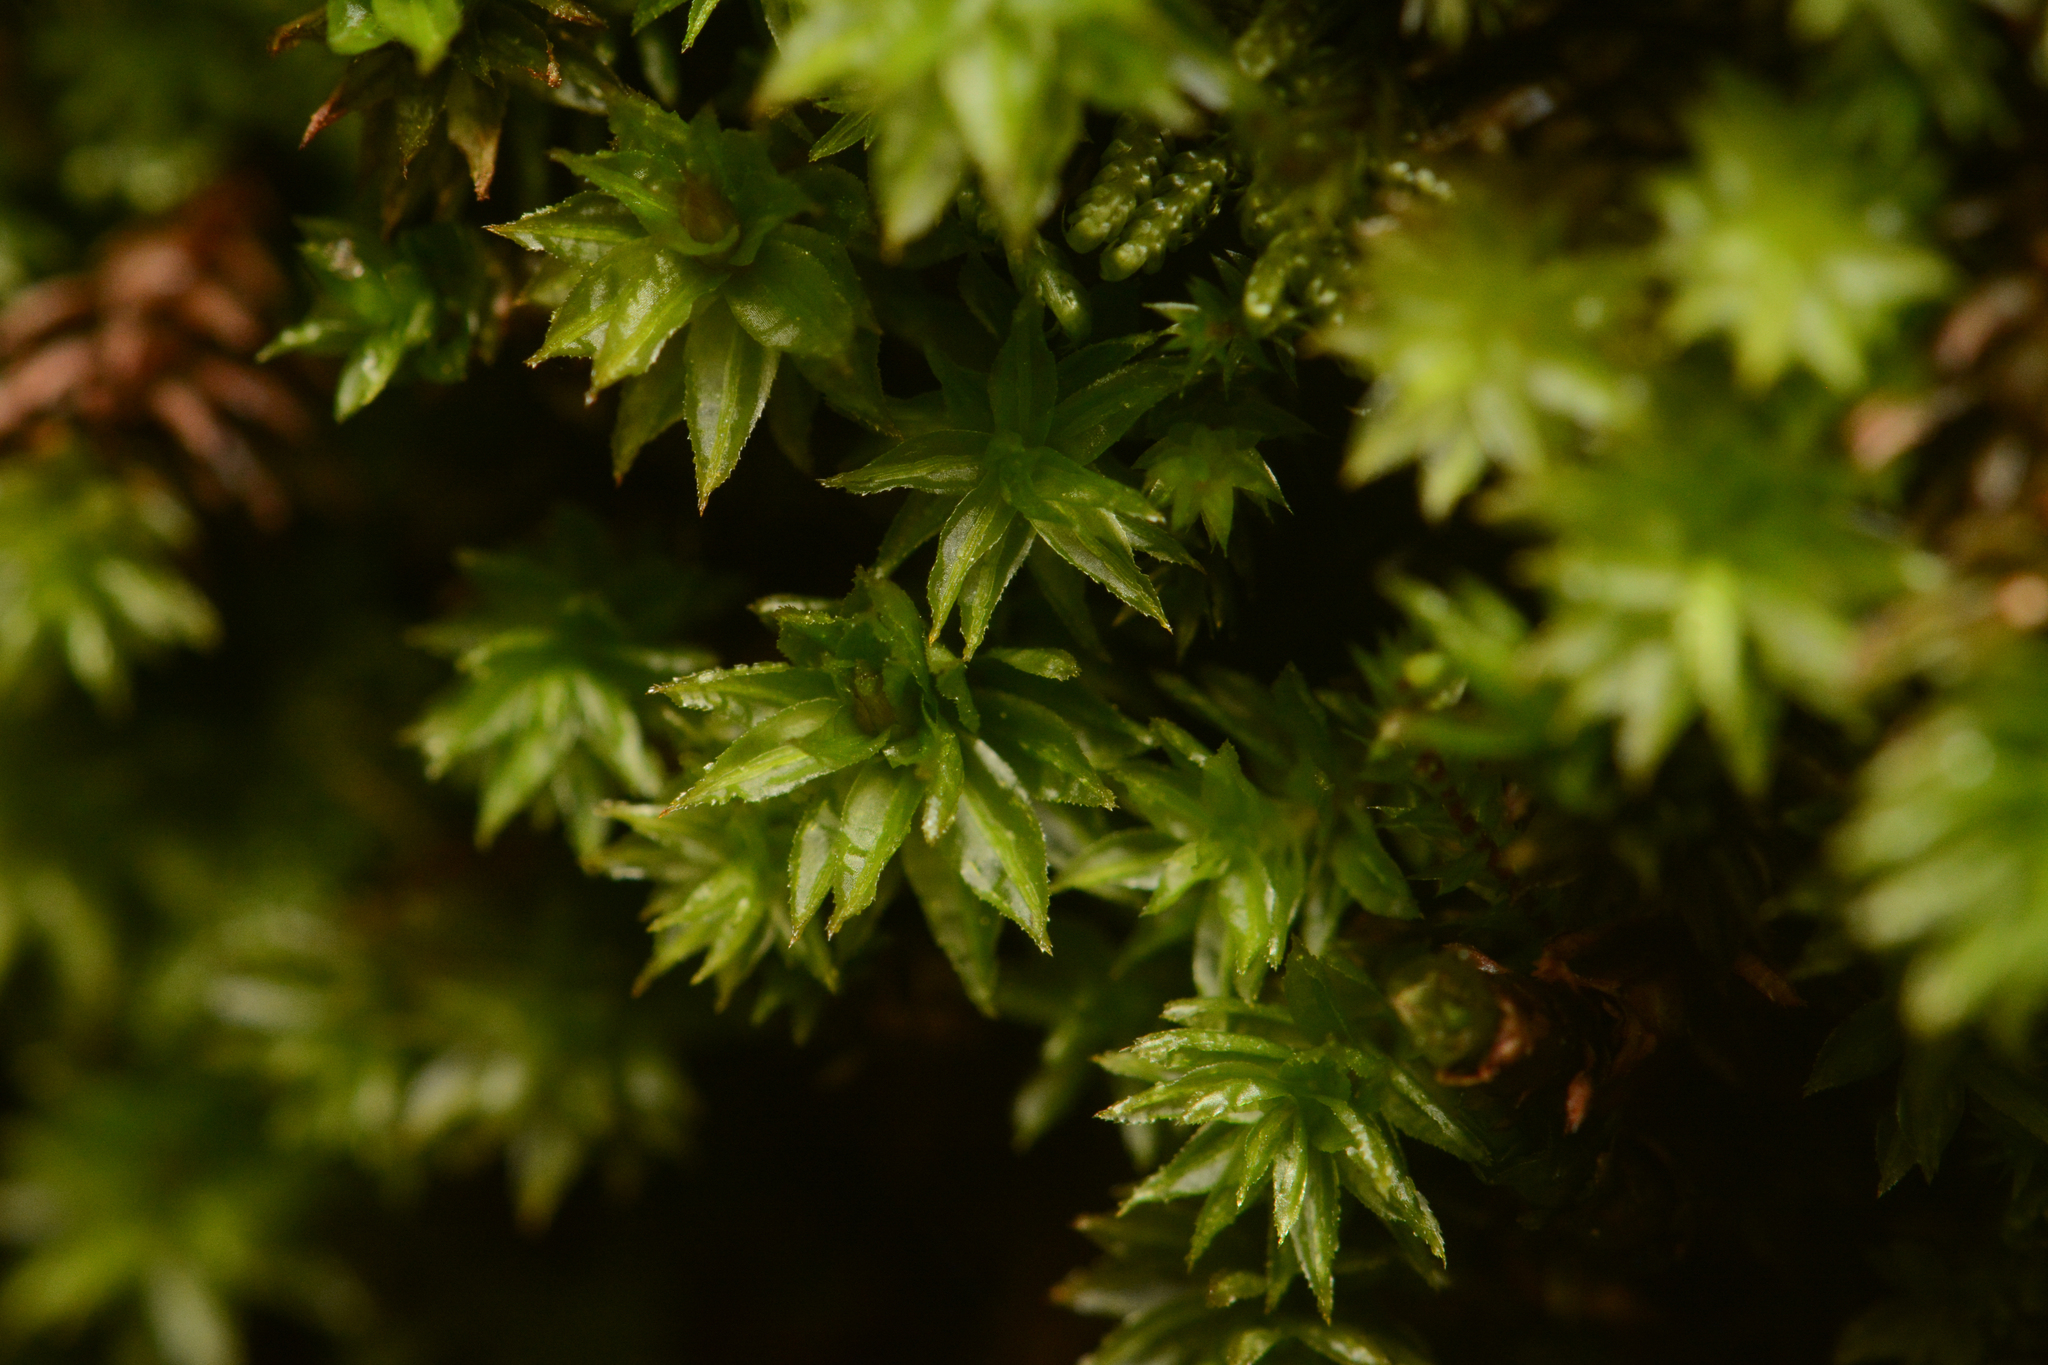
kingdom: Plantae
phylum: Bryophyta
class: Polytrichopsida
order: Polytrichales
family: Polytrichaceae
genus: Oligotrichum
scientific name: Oligotrichum parallelum
